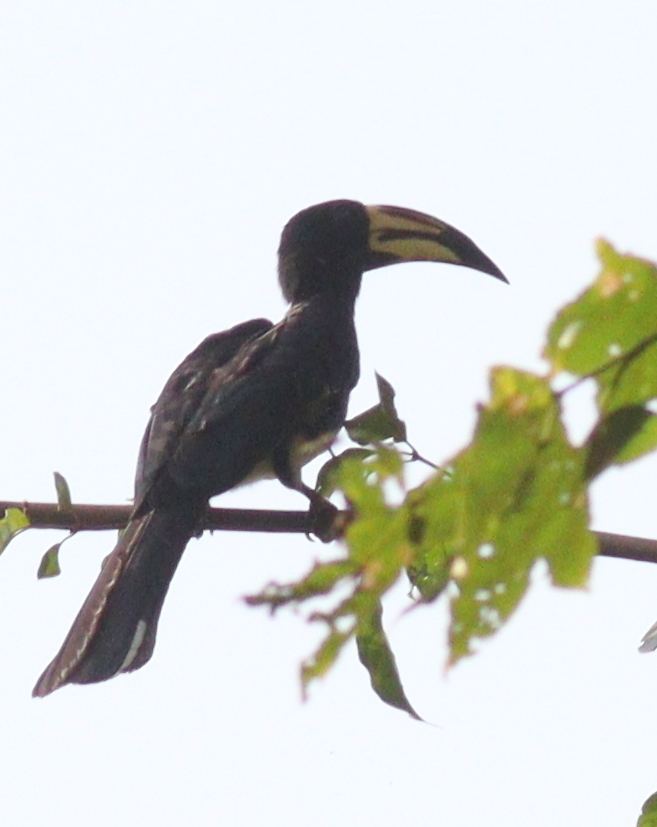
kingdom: Animalia
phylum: Chordata
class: Aves
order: Bucerotiformes
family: Bucerotidae
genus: Lophoceros
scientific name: Lophoceros fasciatus
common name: African pied hornbill
